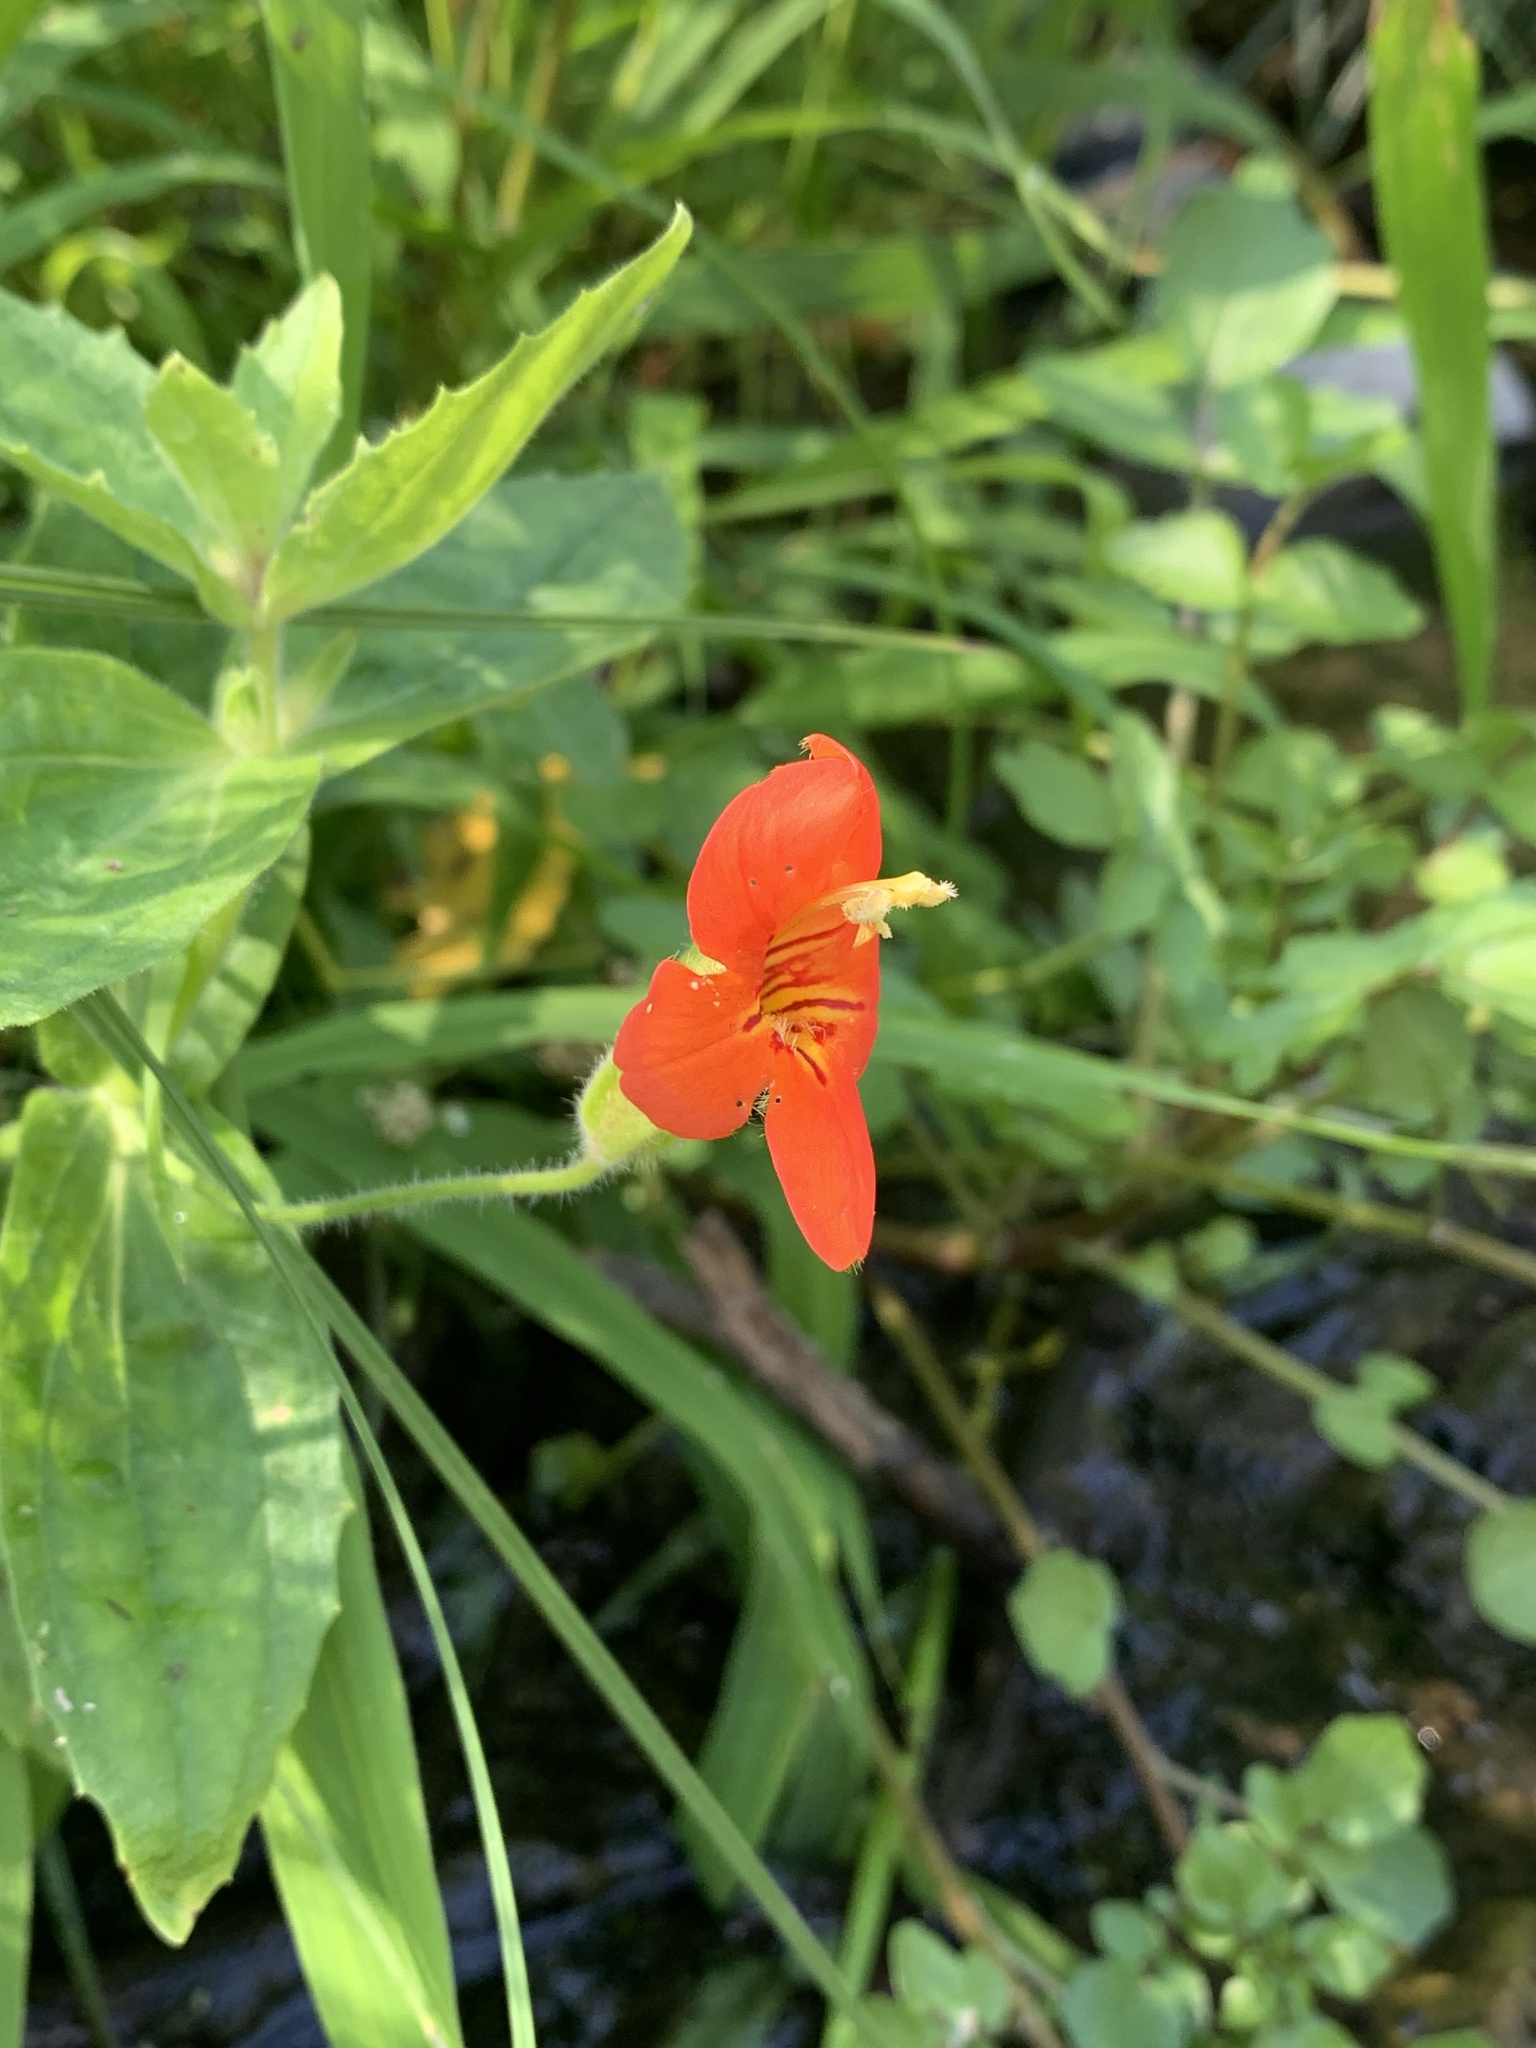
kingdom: Plantae
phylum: Tracheophyta
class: Magnoliopsida
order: Lamiales
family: Phrymaceae
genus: Erythranthe
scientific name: Erythranthe cardinalis
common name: Scarlet monkey-flower
